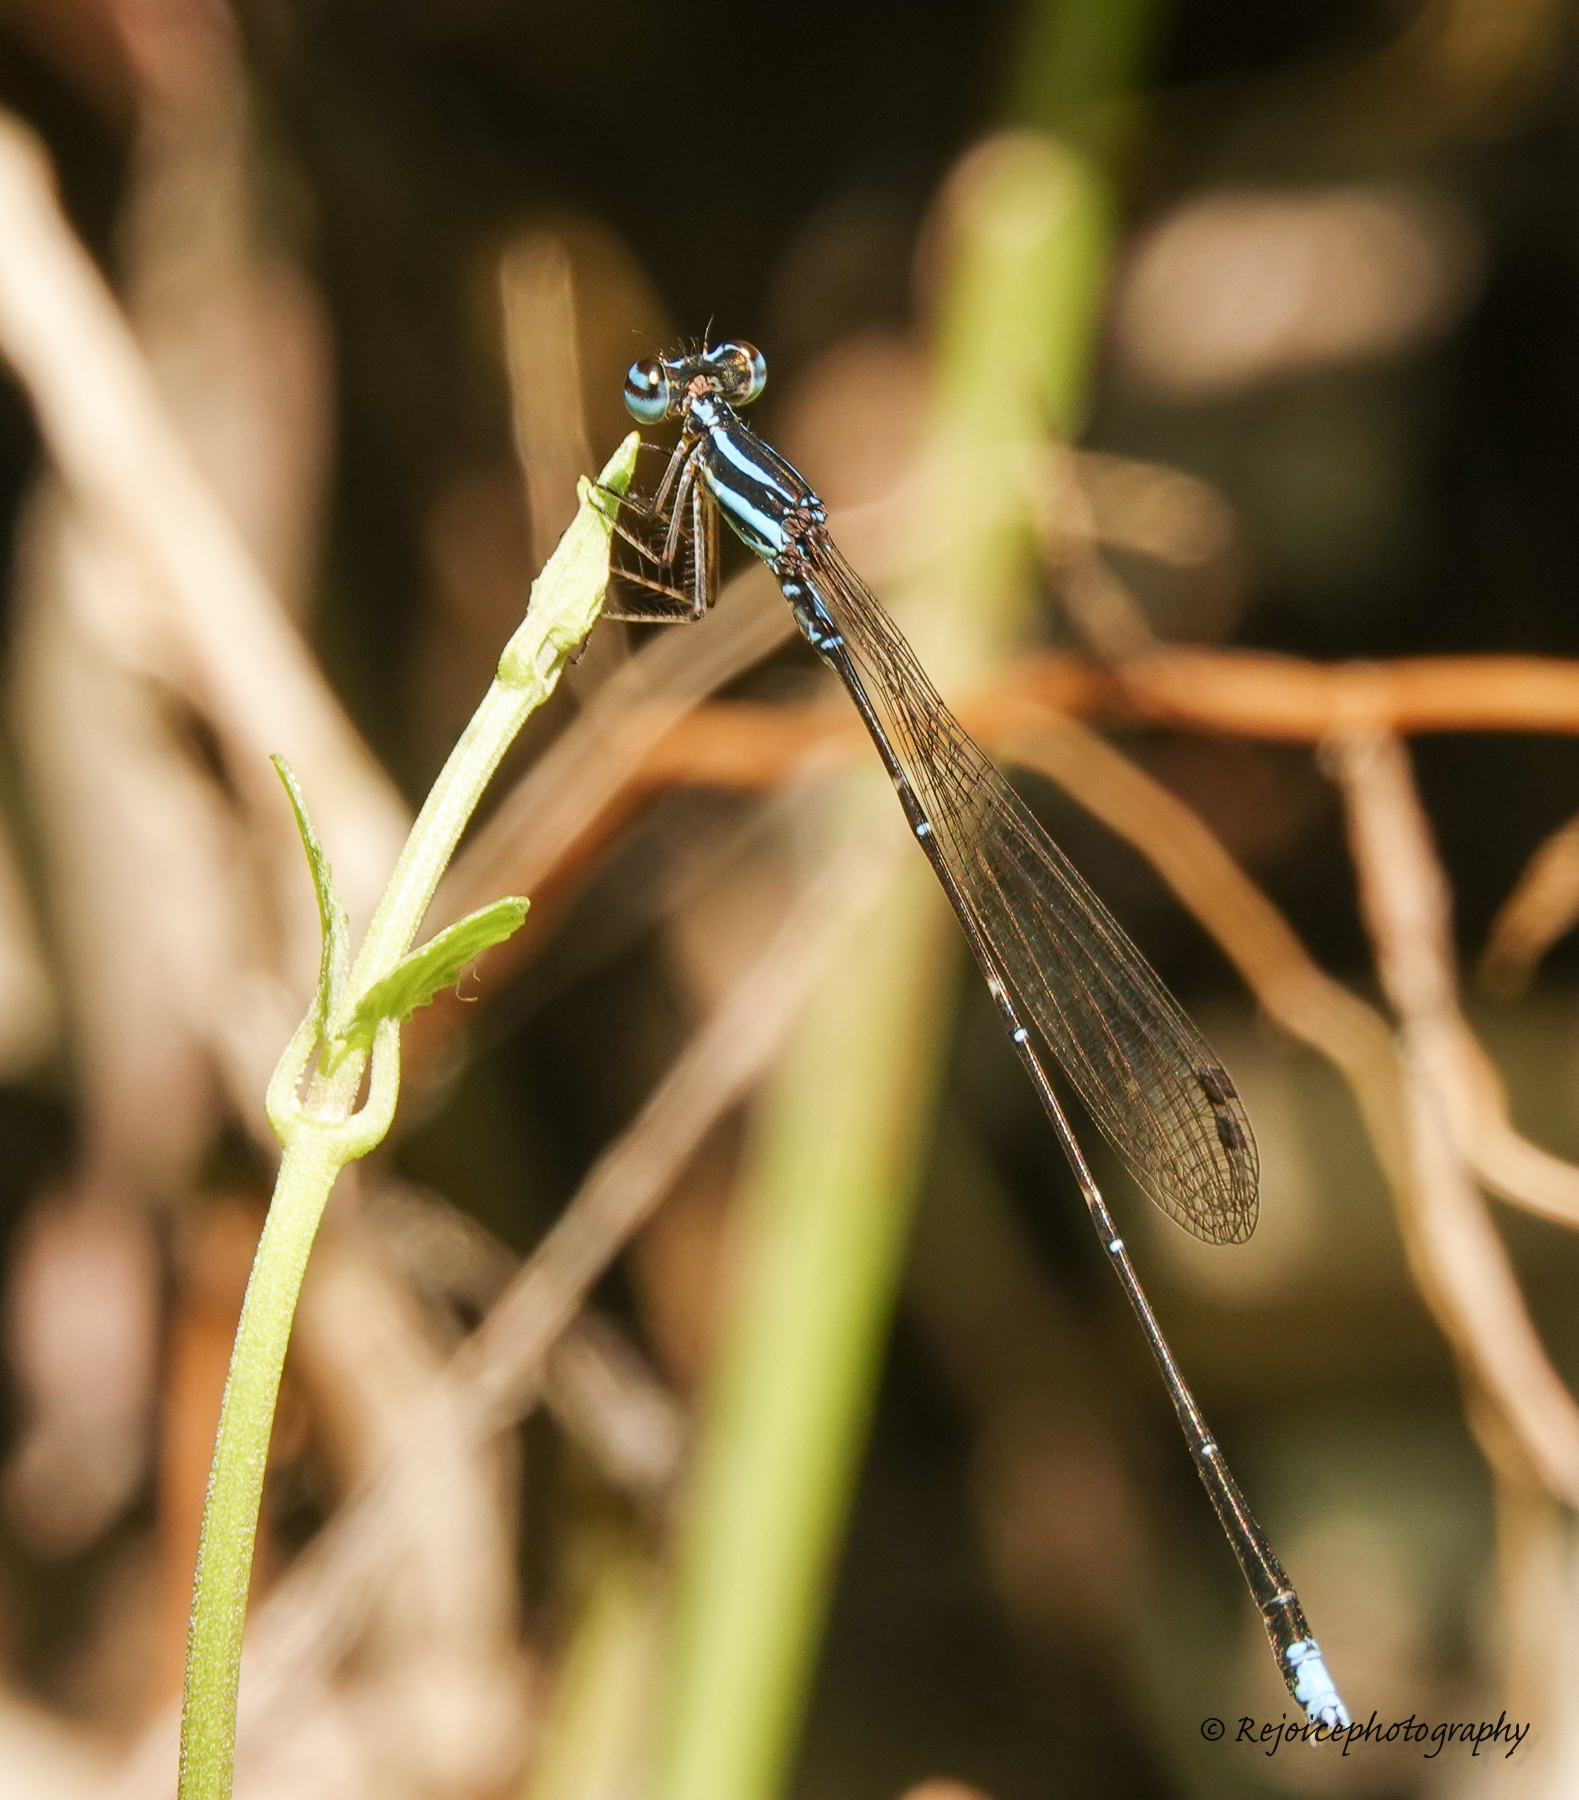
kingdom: Animalia
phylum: Arthropoda
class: Insecta
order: Odonata
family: Platycnemididae
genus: Elattoneura
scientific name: Elattoneura campioni
